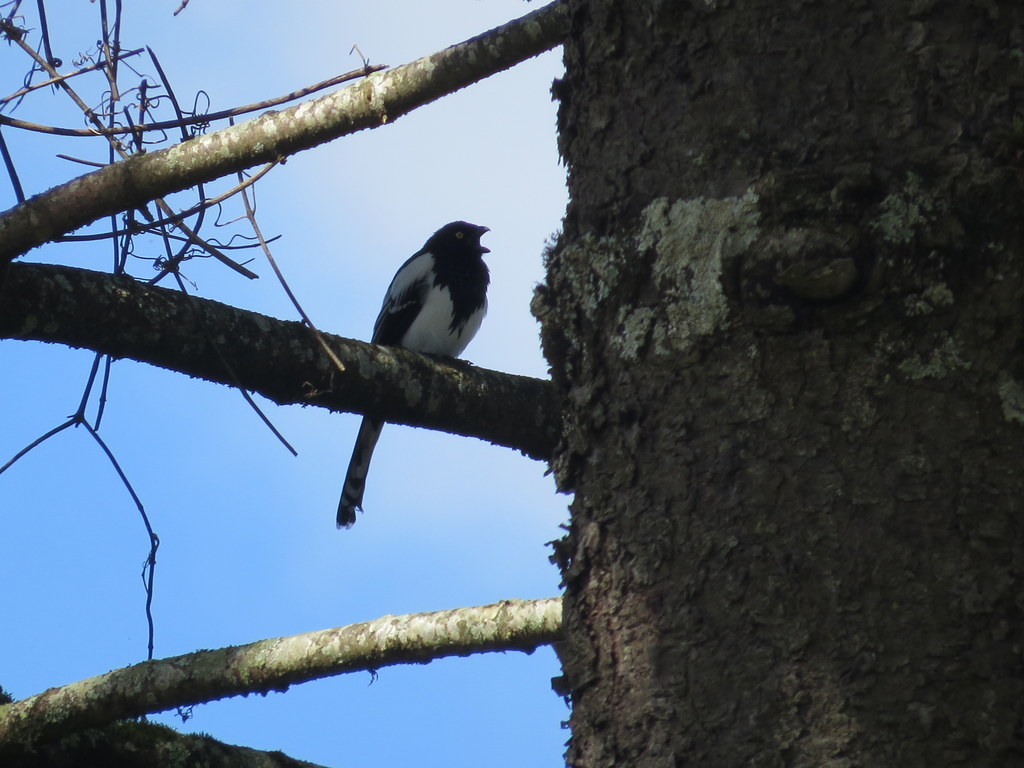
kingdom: Animalia
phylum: Chordata
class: Aves
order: Passeriformes
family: Thraupidae
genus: Cissopis
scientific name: Cissopis leverianus
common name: Magpie tanager
